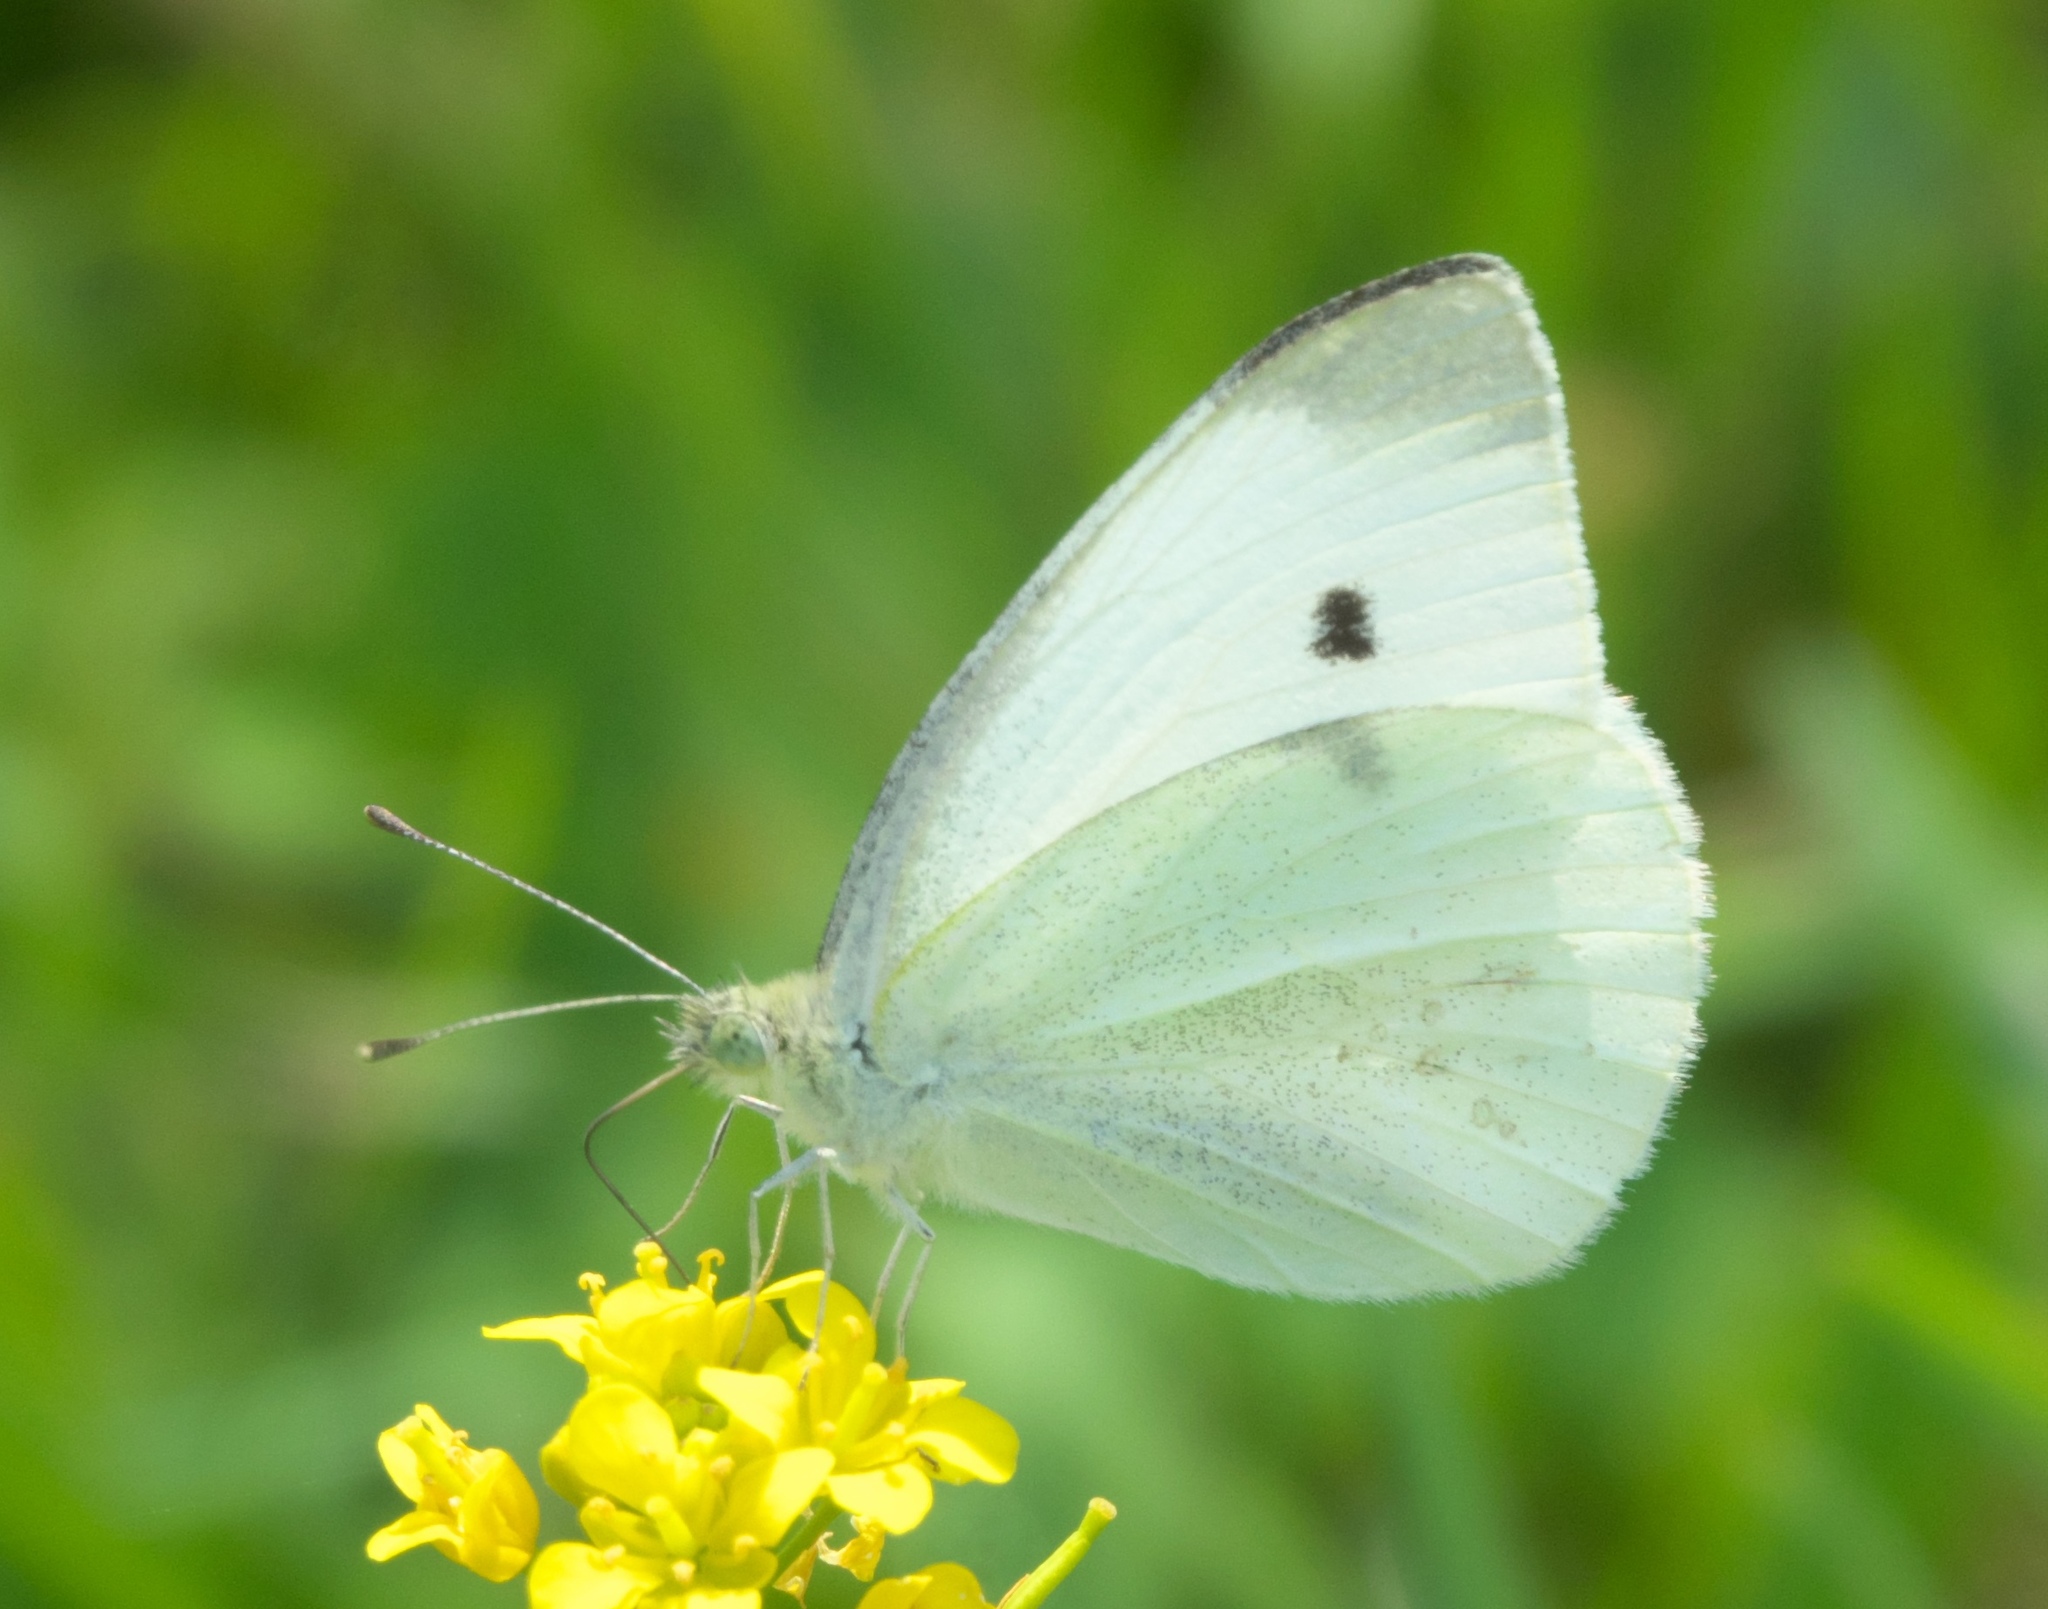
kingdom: Animalia
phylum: Arthropoda
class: Insecta
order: Lepidoptera
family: Pieridae
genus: Pieris
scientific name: Pieris rapae
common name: Small white
